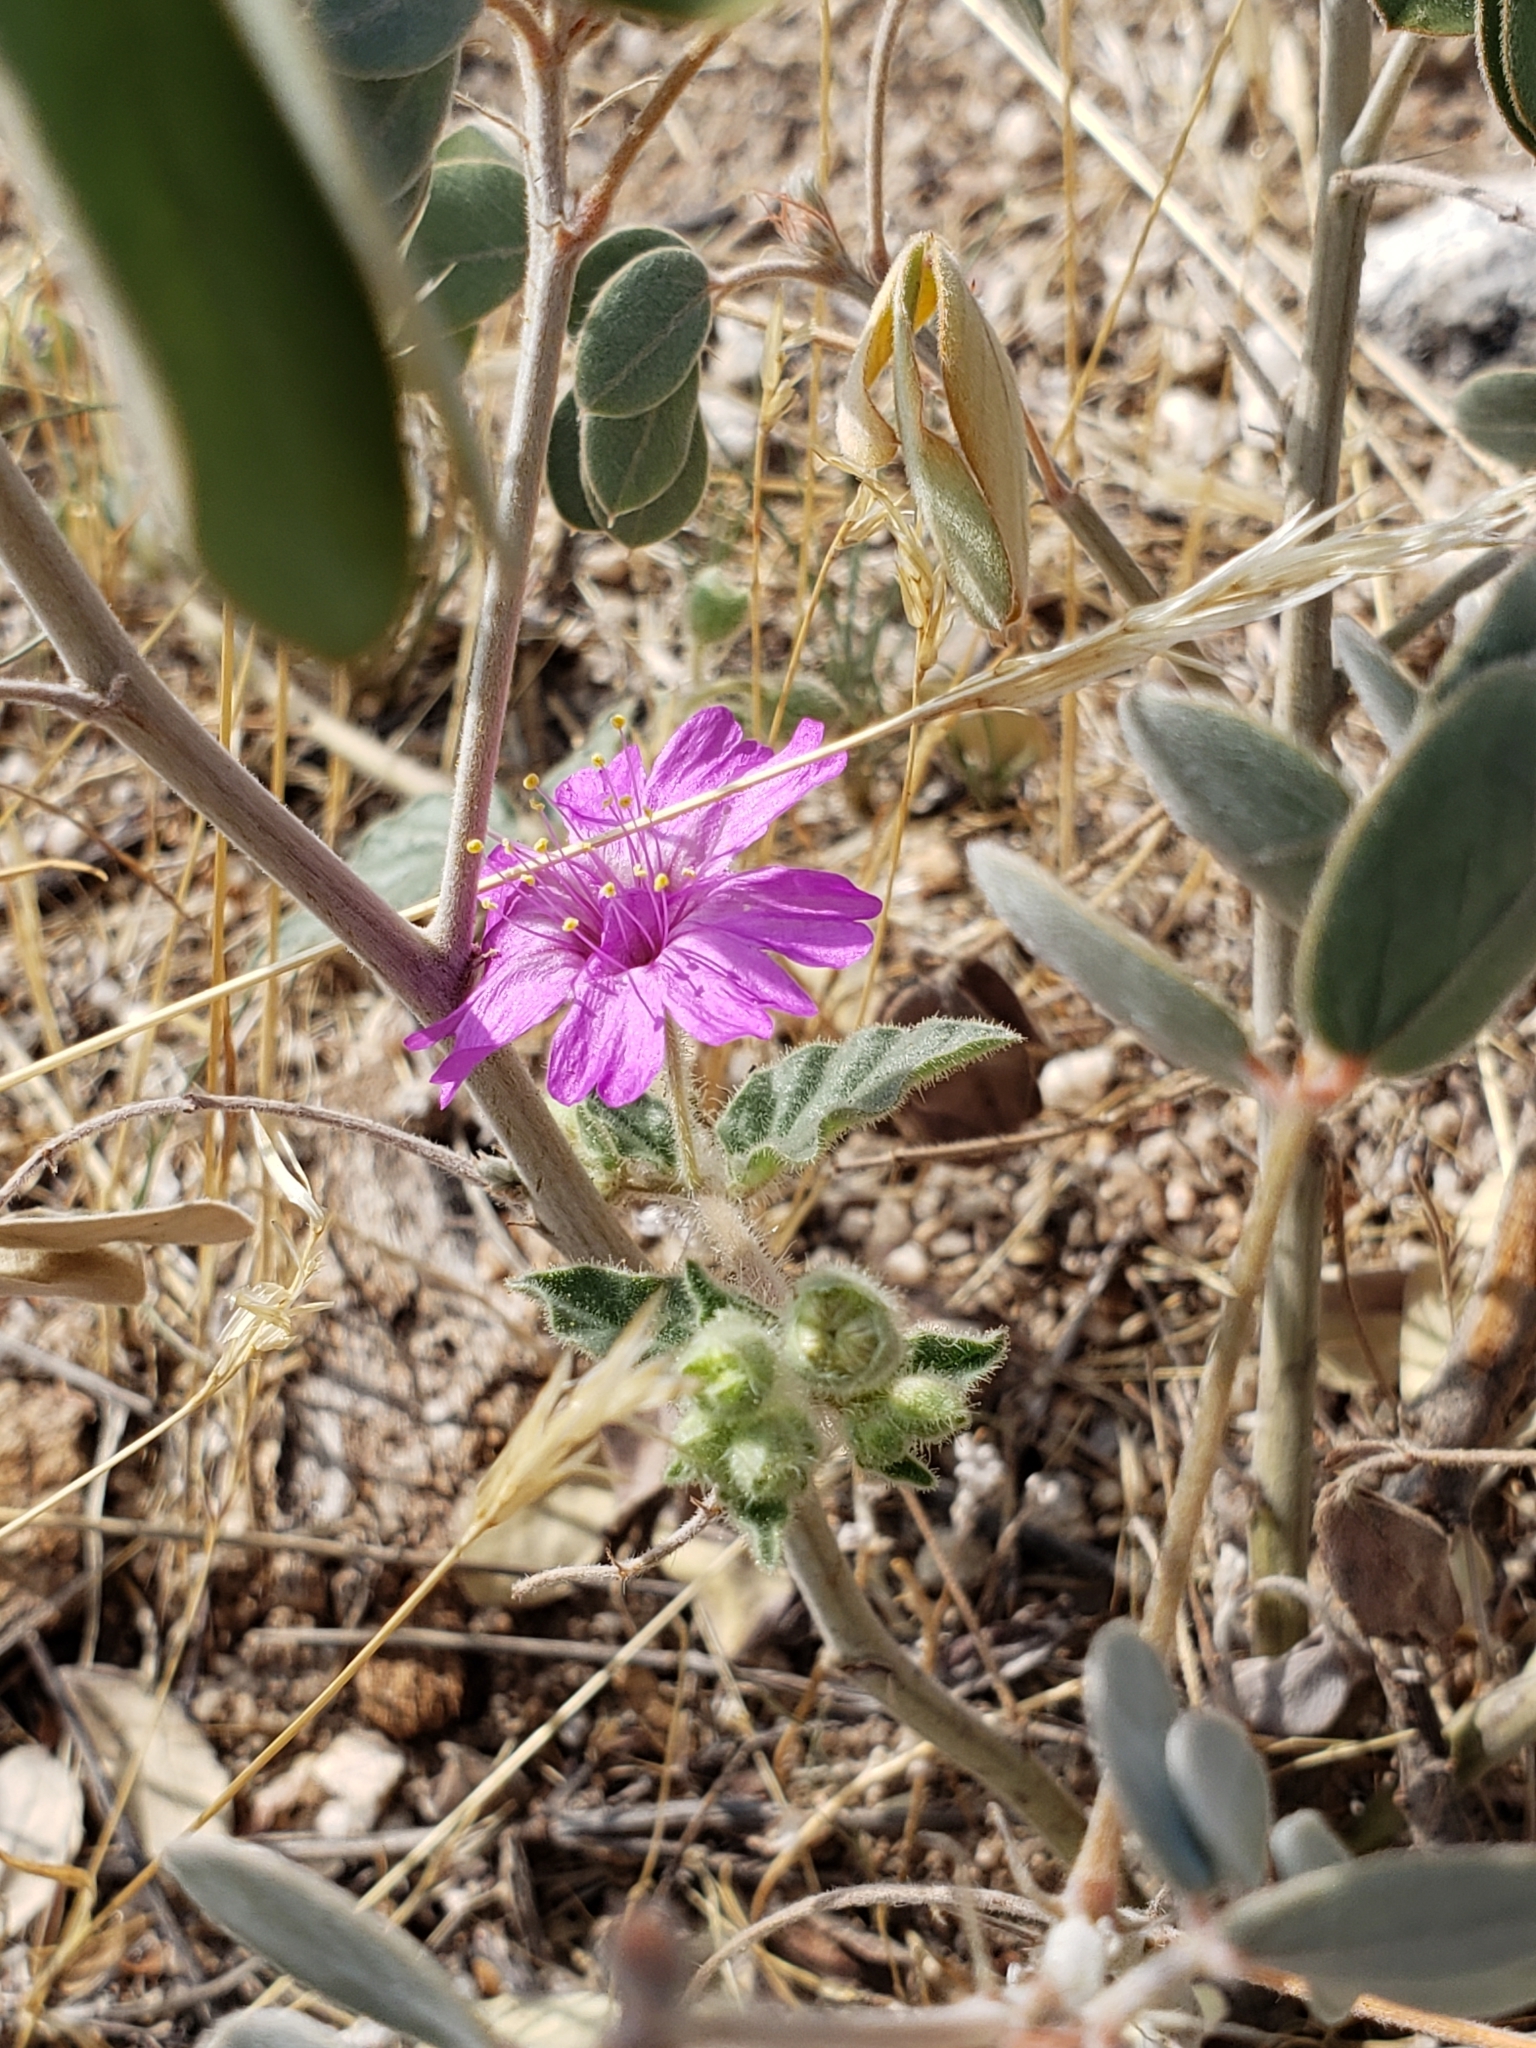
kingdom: Plantae
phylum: Tracheophyta
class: Magnoliopsida
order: Caryophyllales
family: Nyctaginaceae
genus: Allionia
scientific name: Allionia incarnata
